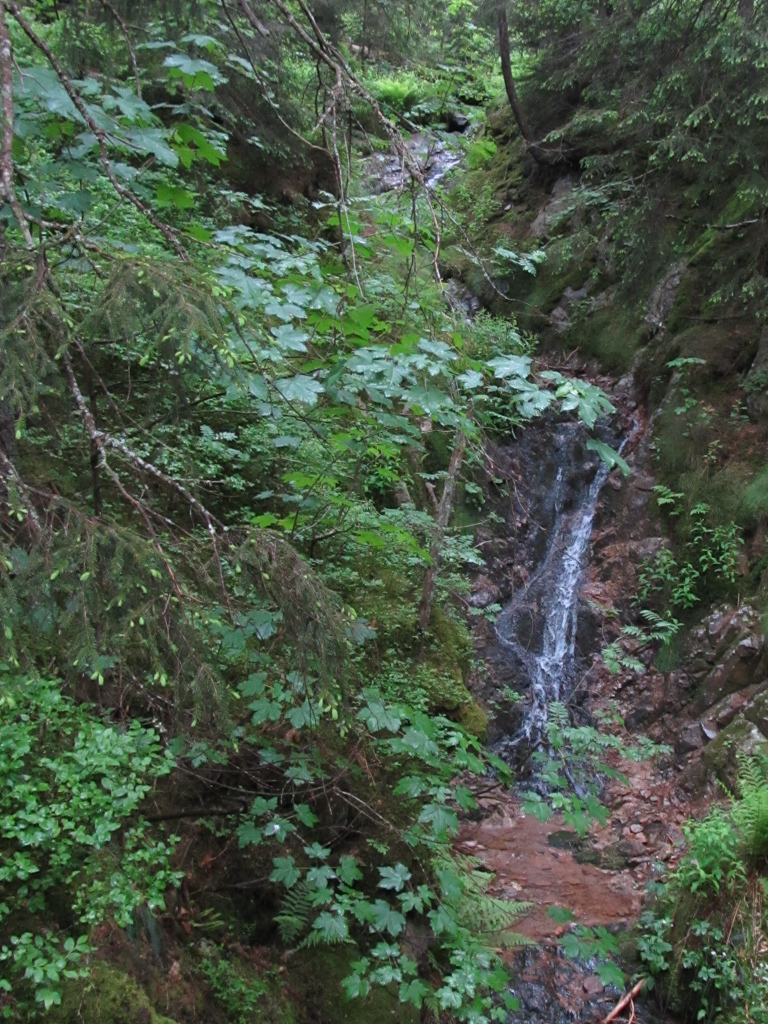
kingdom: Plantae
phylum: Tracheophyta
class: Magnoliopsida
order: Sapindales
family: Sapindaceae
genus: Acer
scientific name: Acer pseudoplatanus
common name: Sycamore
